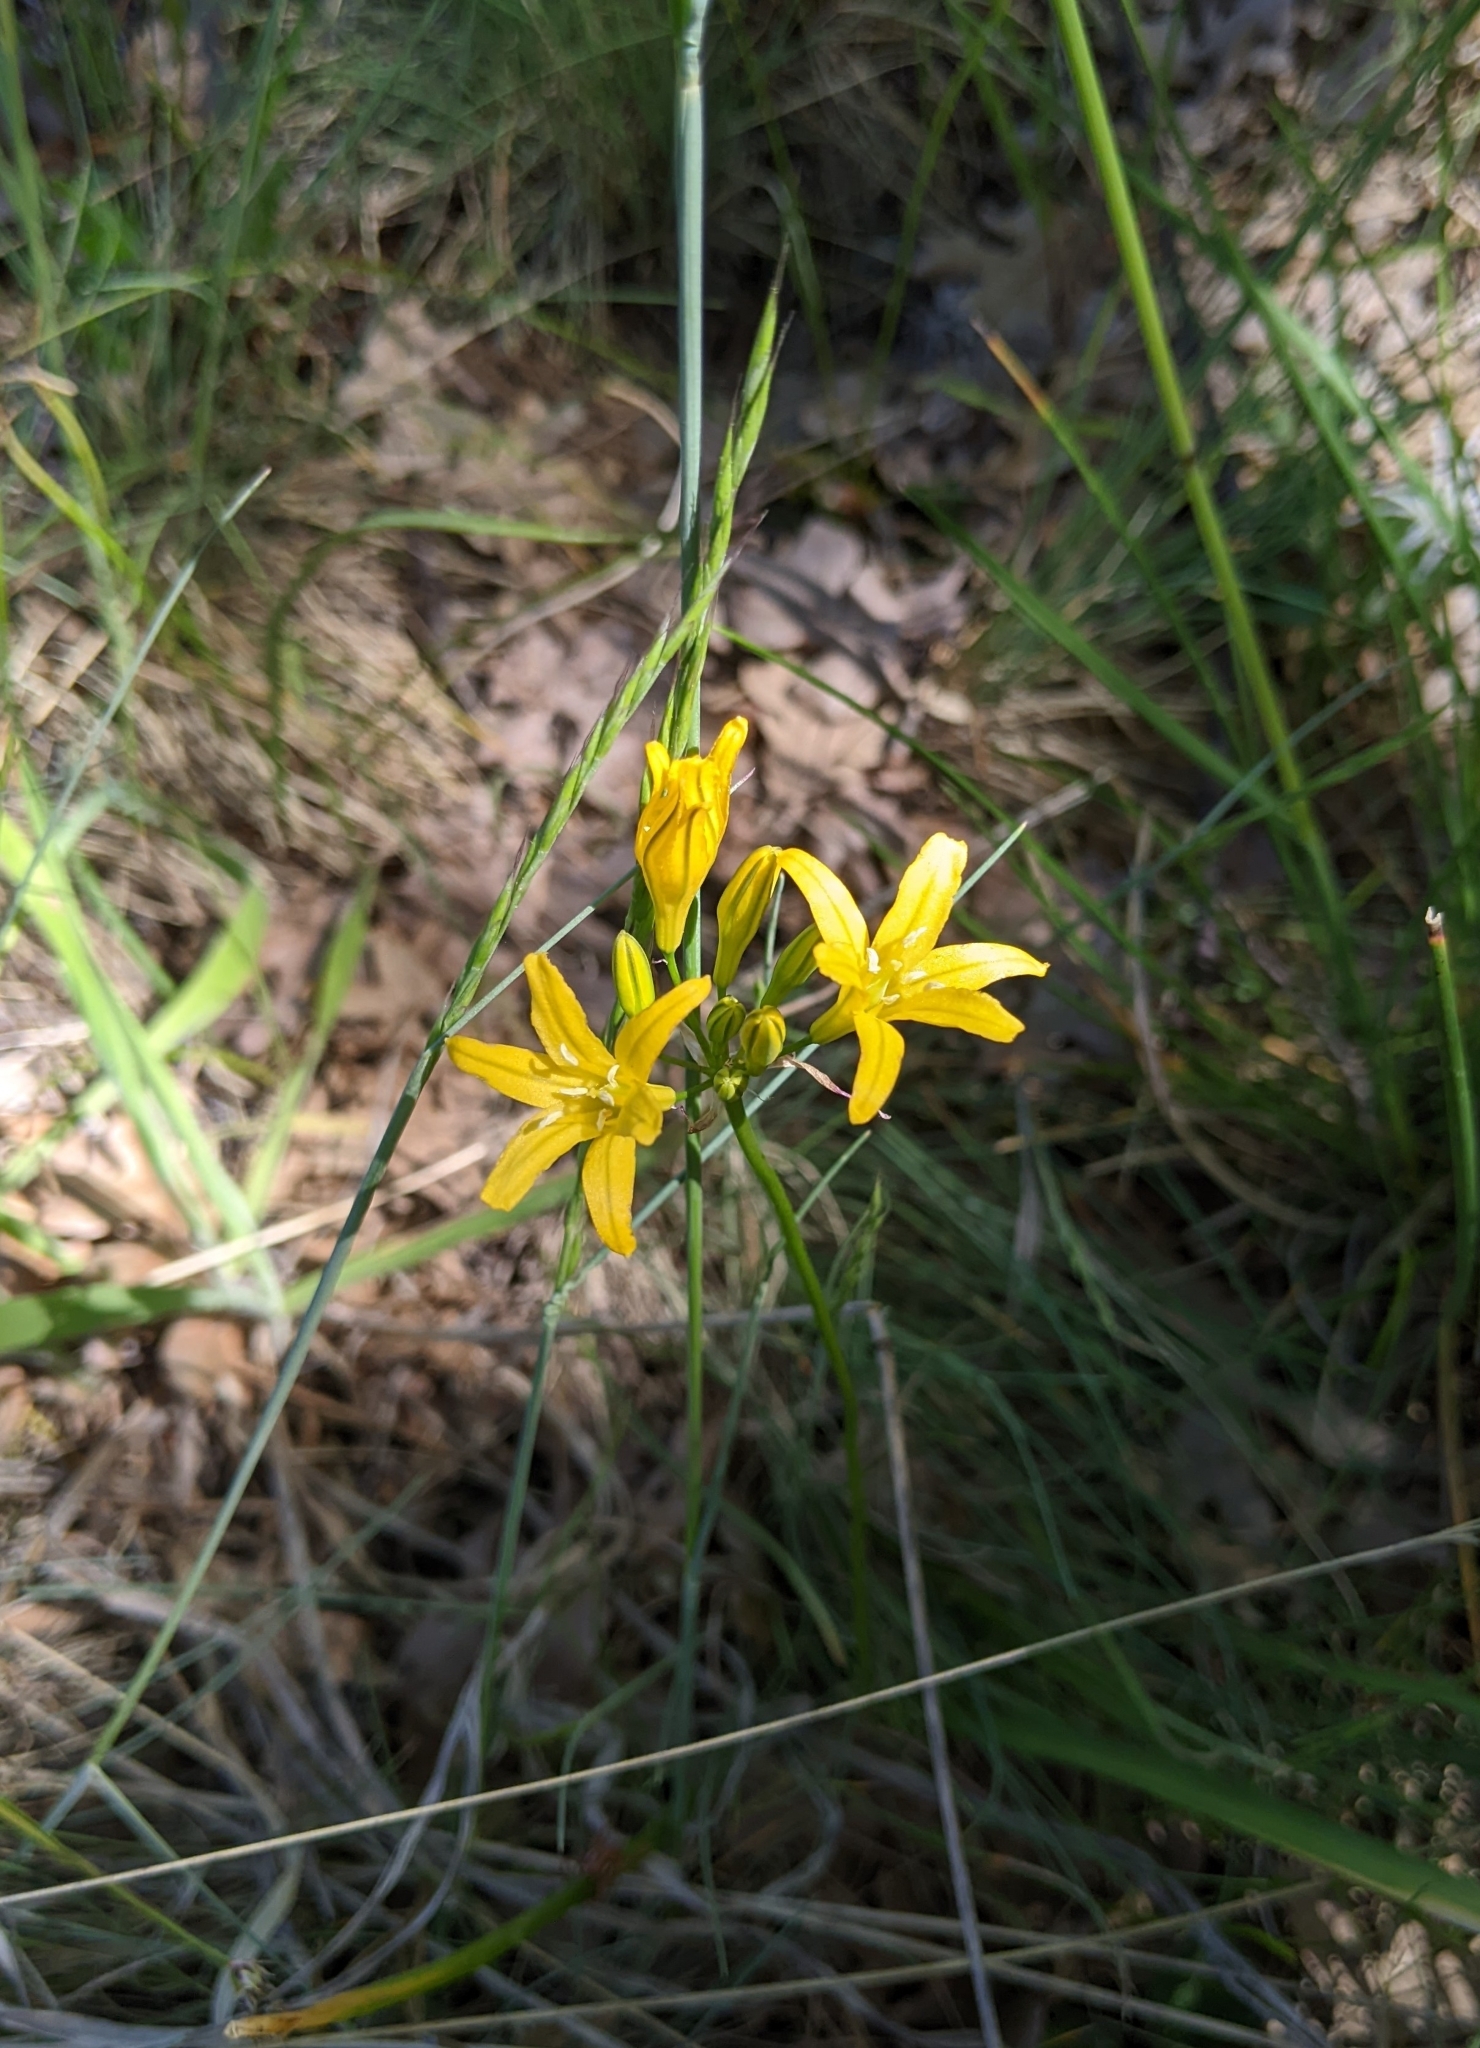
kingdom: Plantae
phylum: Tracheophyta
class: Liliopsida
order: Asparagales
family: Asparagaceae
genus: Triteleia
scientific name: Triteleia crocea
